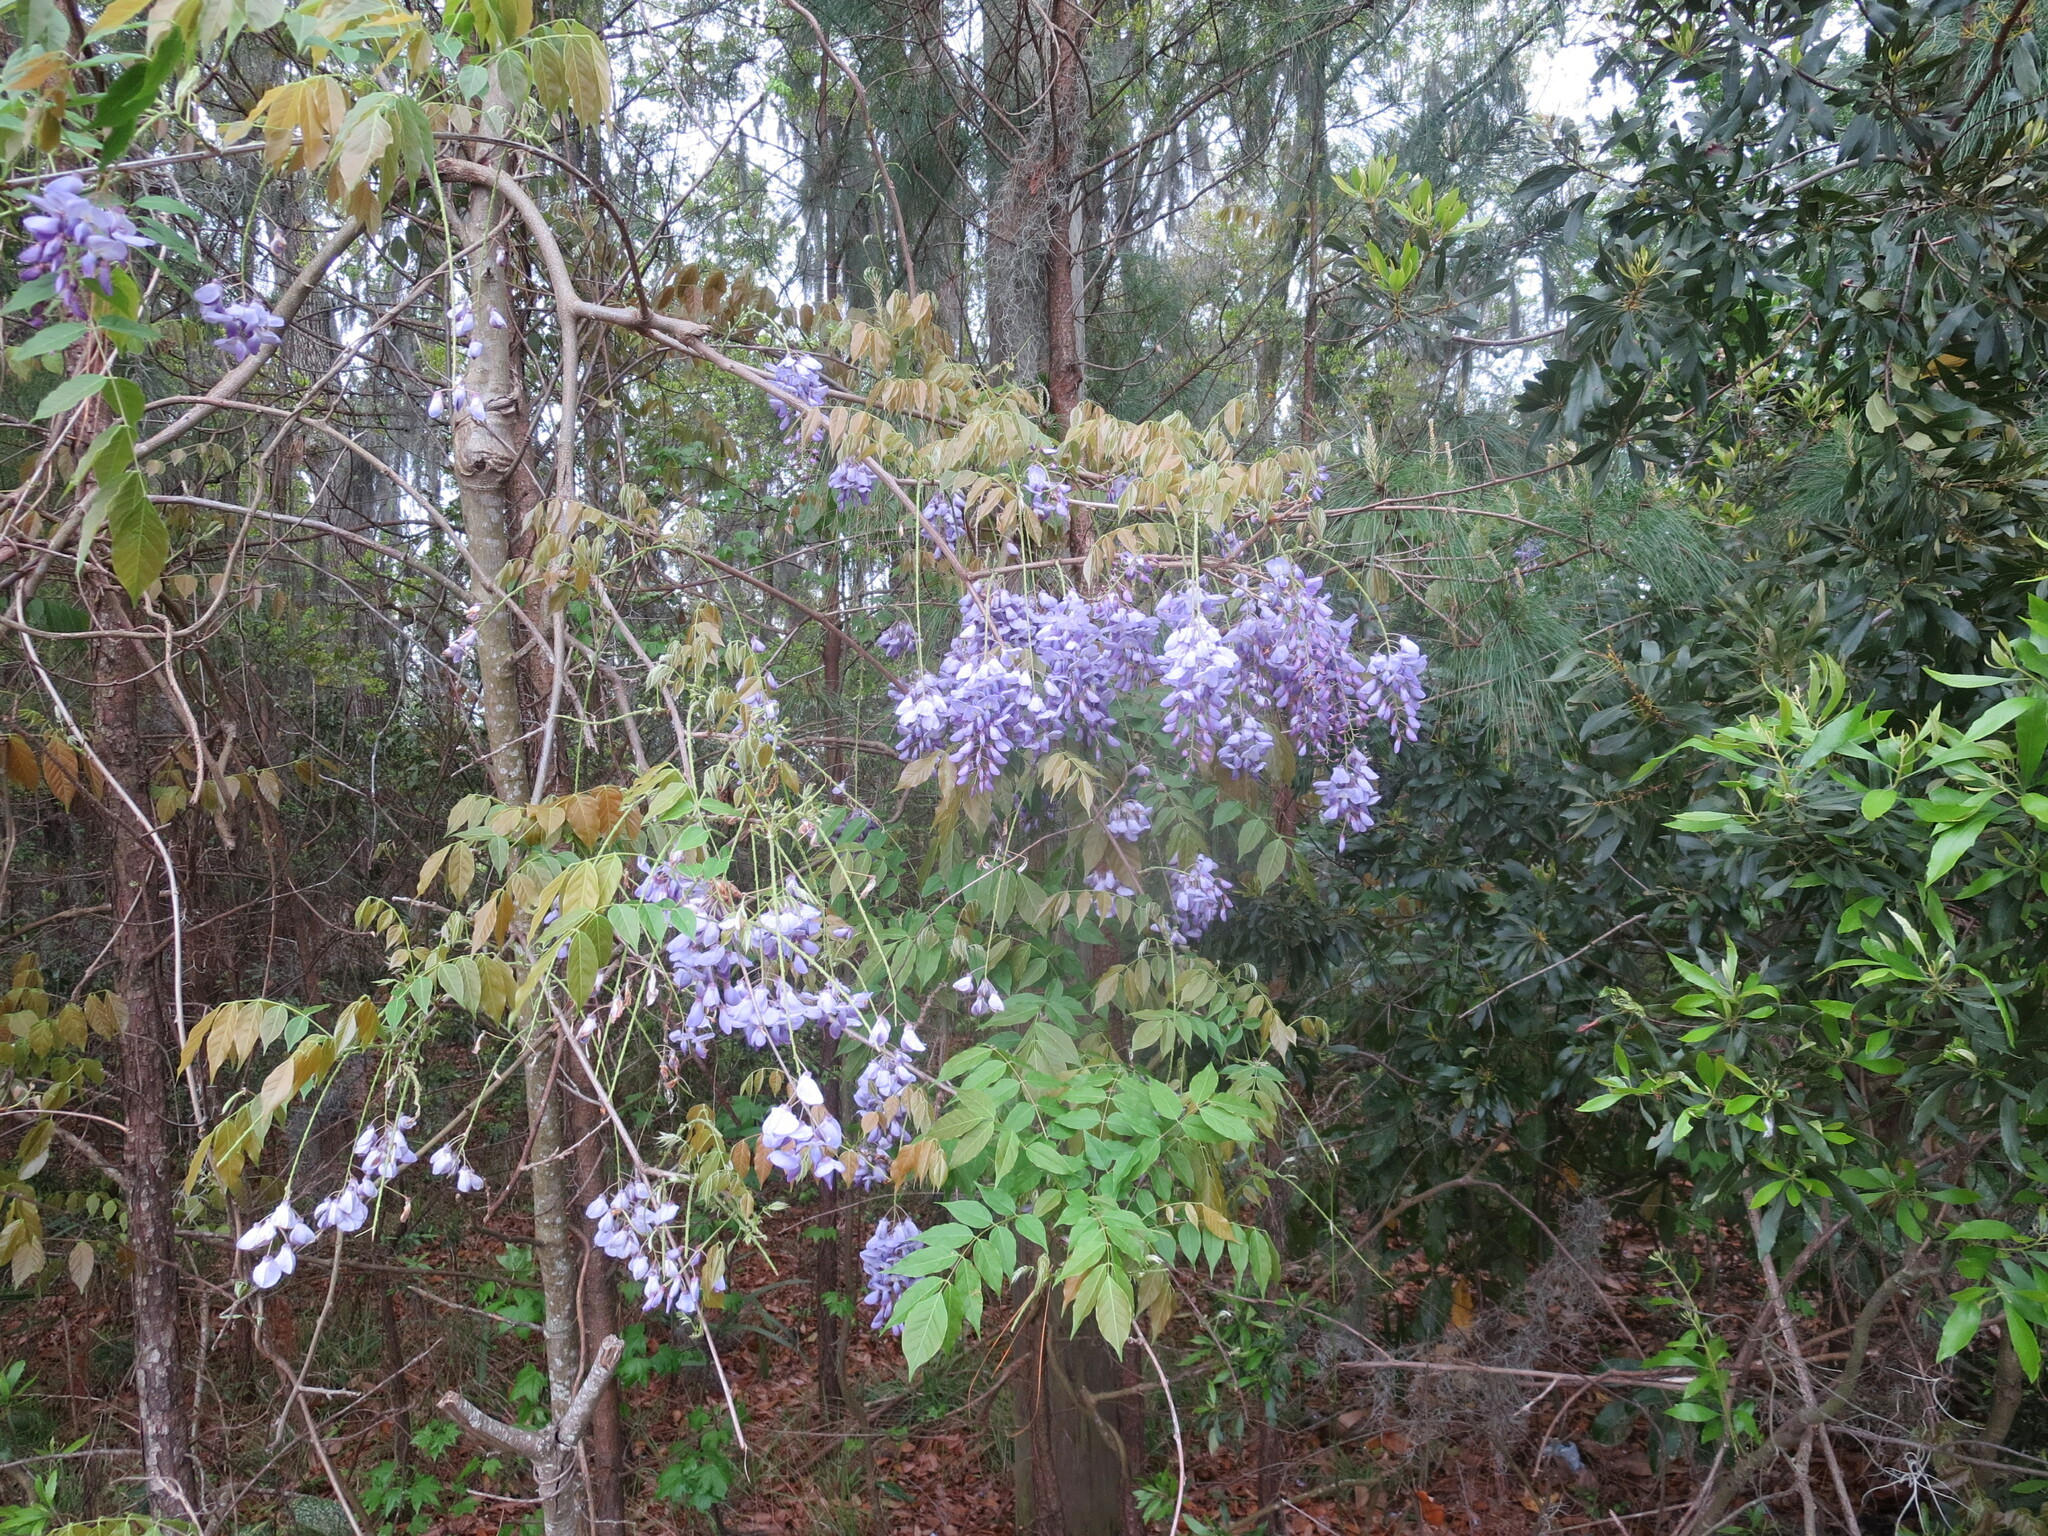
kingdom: Plantae
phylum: Tracheophyta
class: Magnoliopsida
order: Fabales
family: Fabaceae
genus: Wisteria
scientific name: Wisteria frutescens
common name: American wisteria
